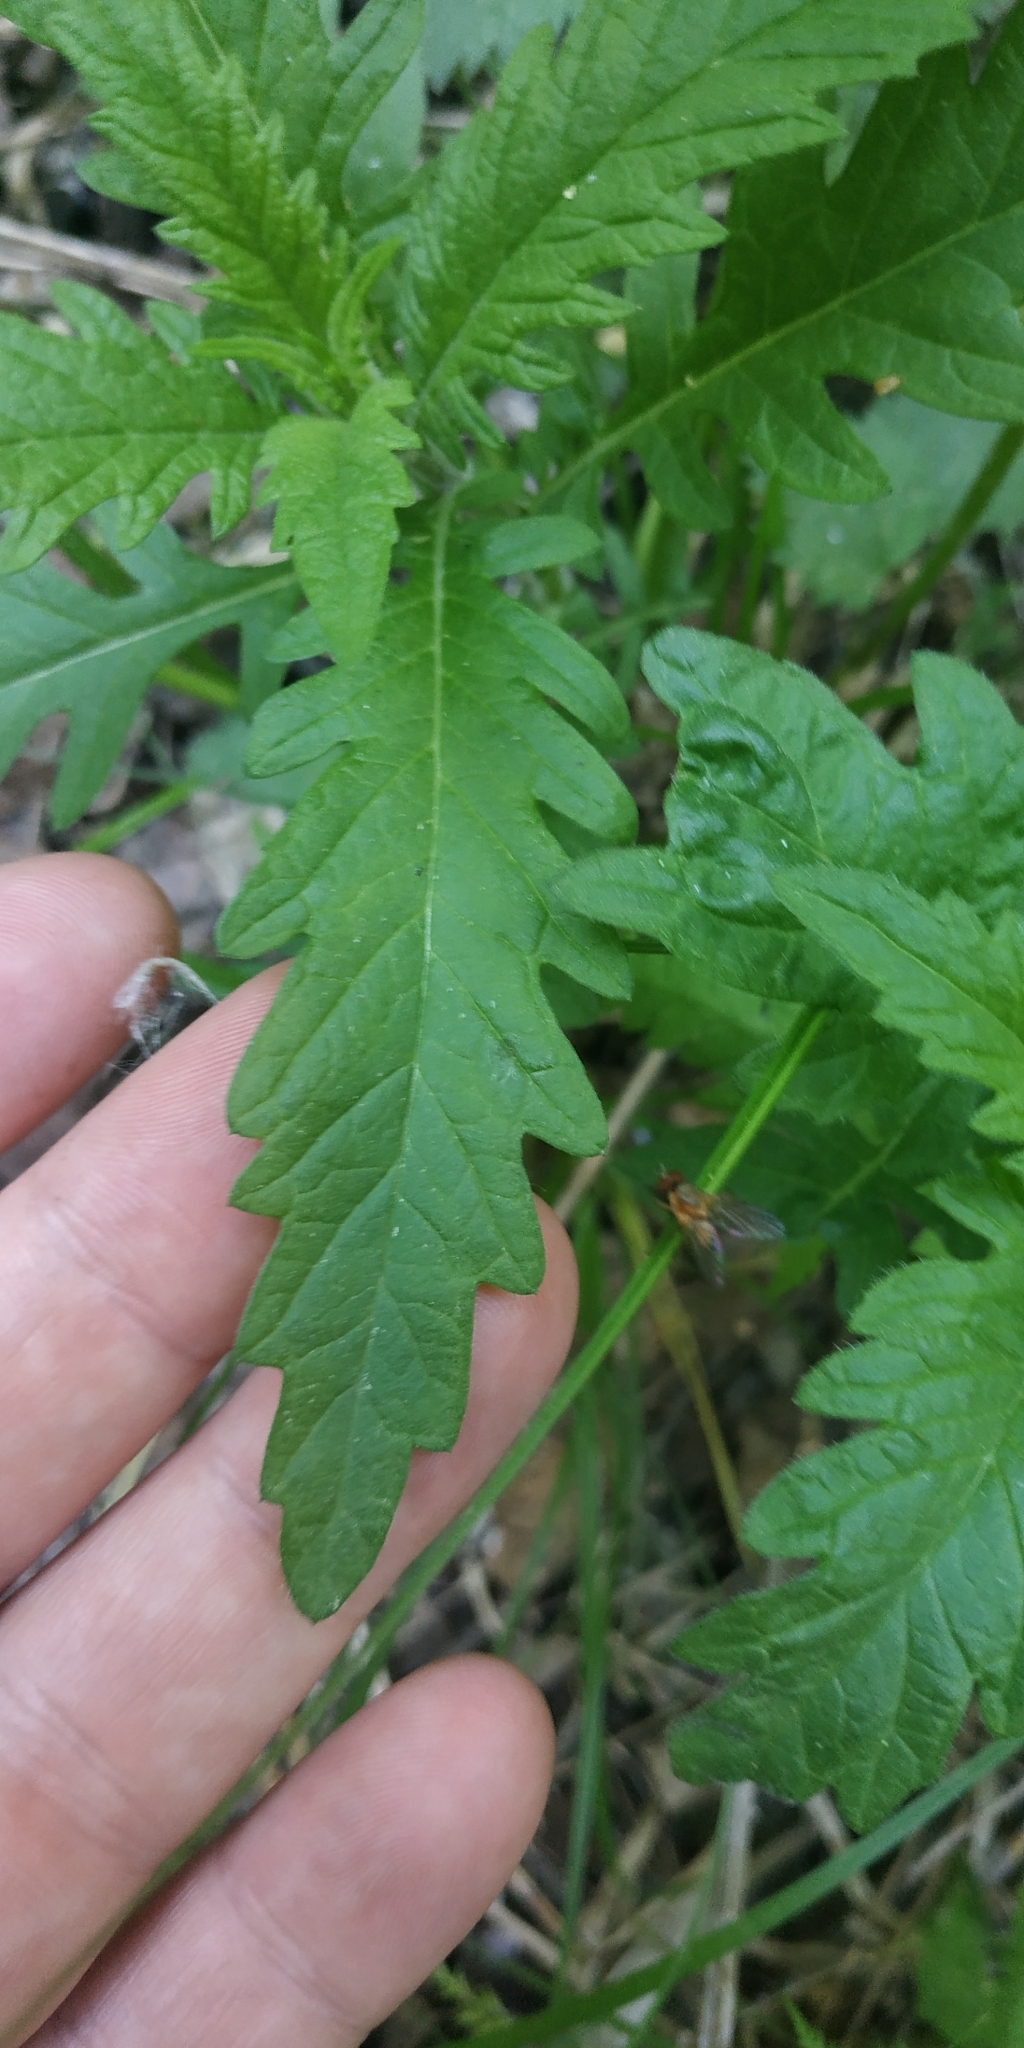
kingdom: Plantae
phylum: Tracheophyta
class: Magnoliopsida
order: Lamiales
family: Lamiaceae
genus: Lycopus
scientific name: Lycopus europaeus
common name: European bugleweed
